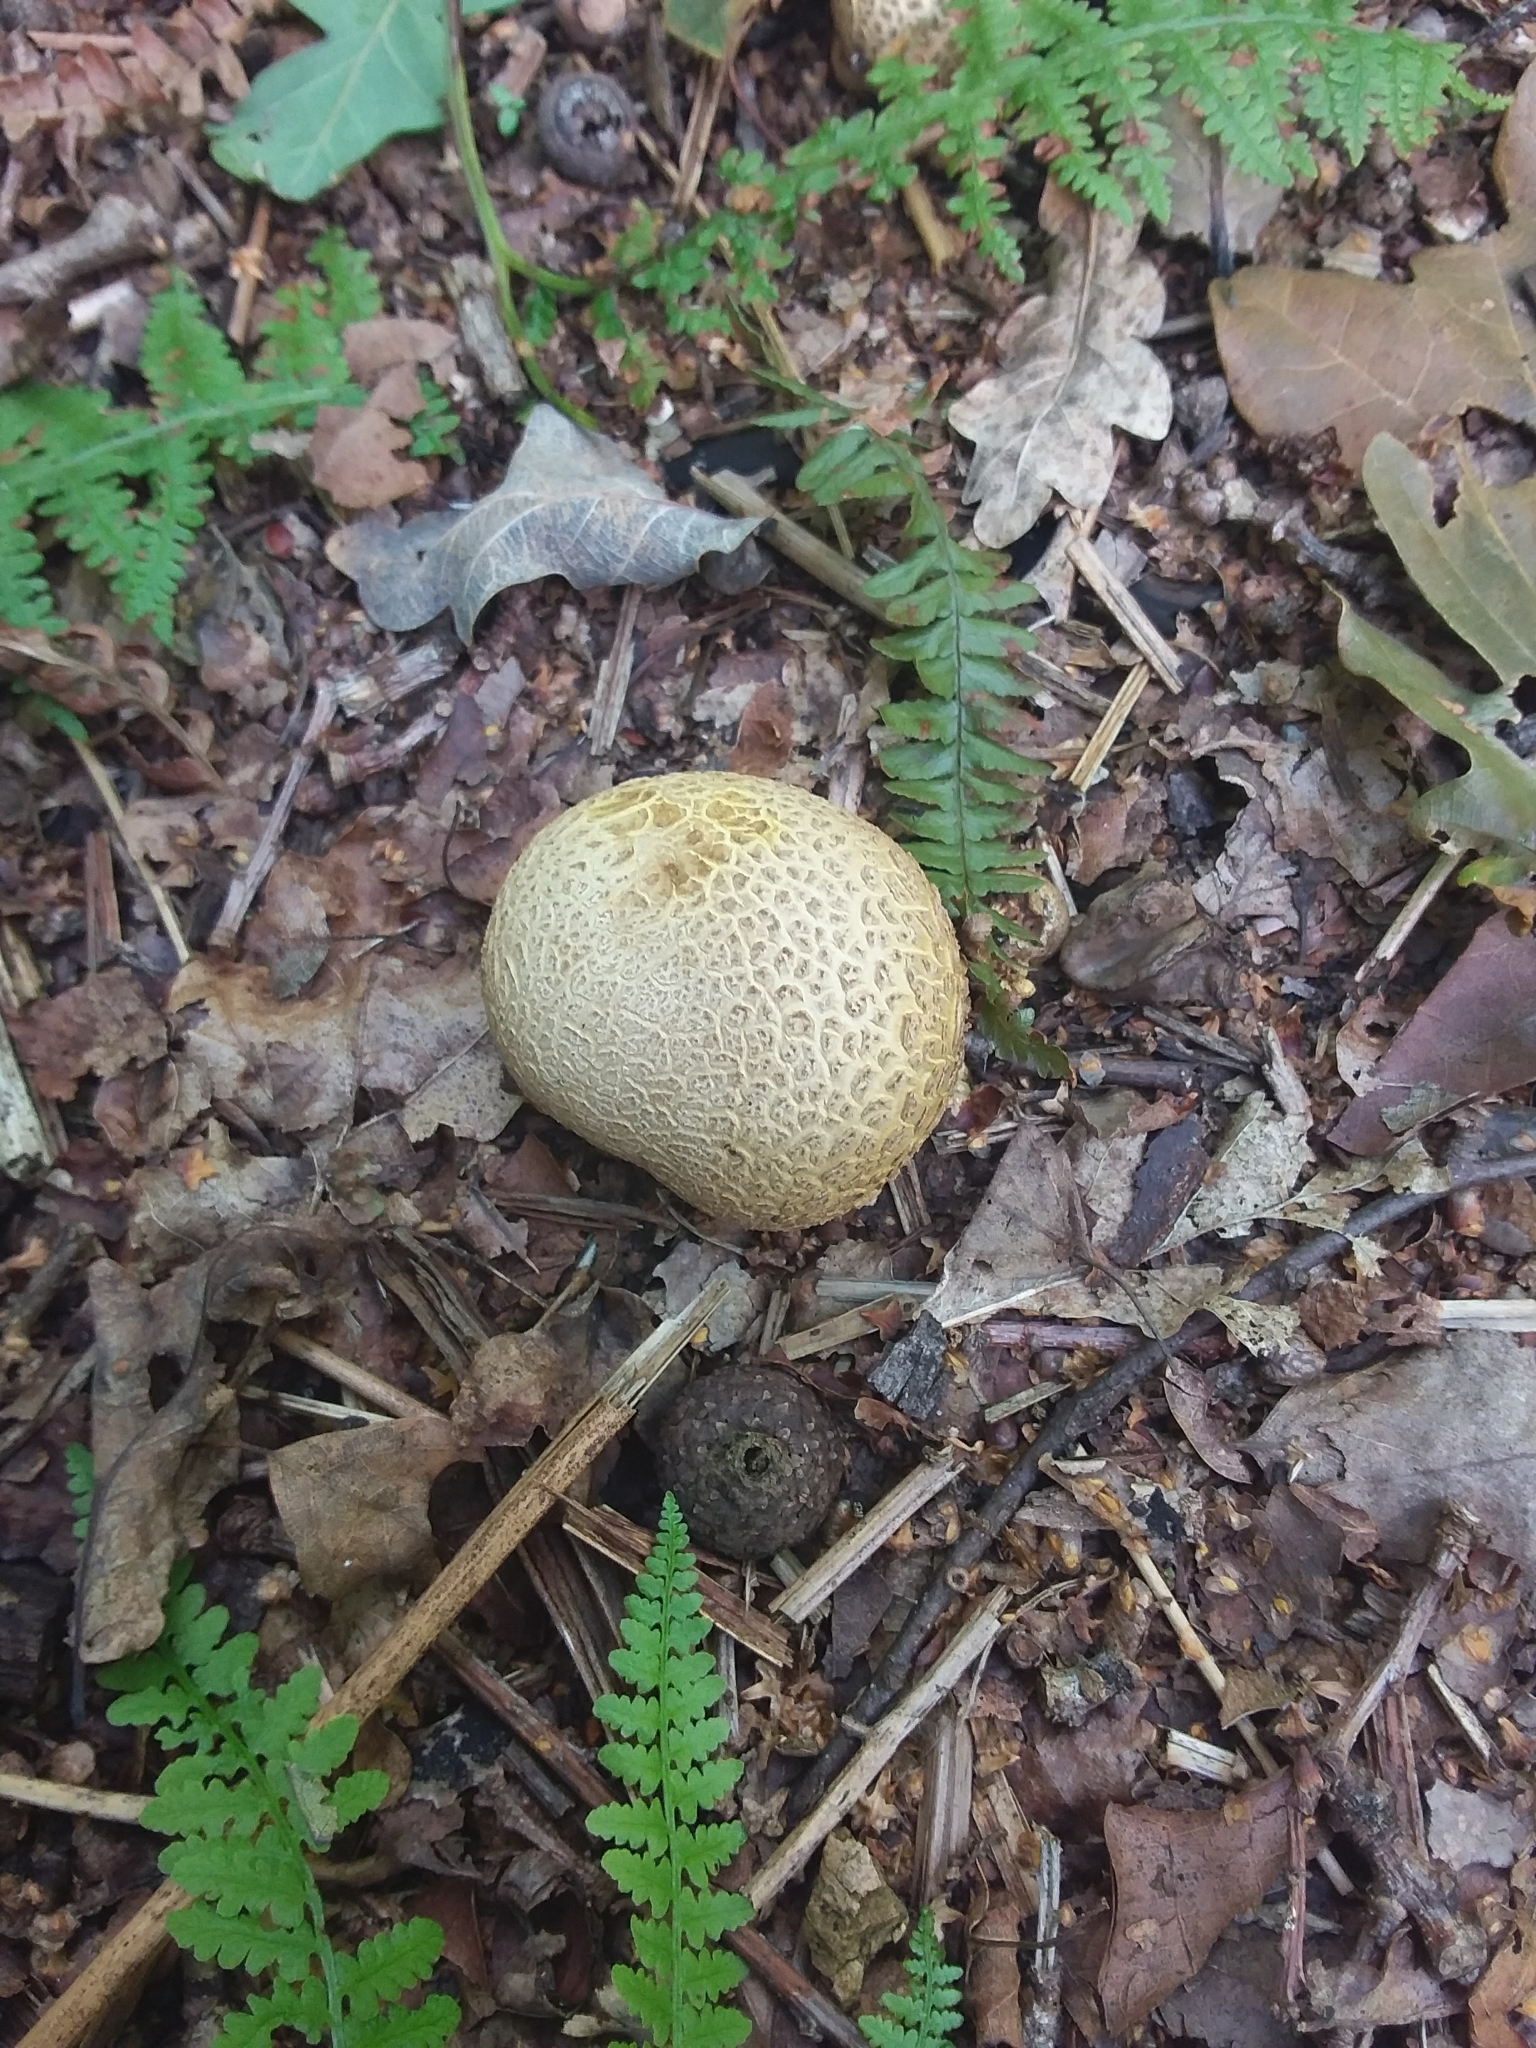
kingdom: Fungi
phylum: Basidiomycota
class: Agaricomycetes
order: Boletales
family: Sclerodermataceae
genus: Scleroderma
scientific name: Scleroderma citrinum
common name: Common earthball
